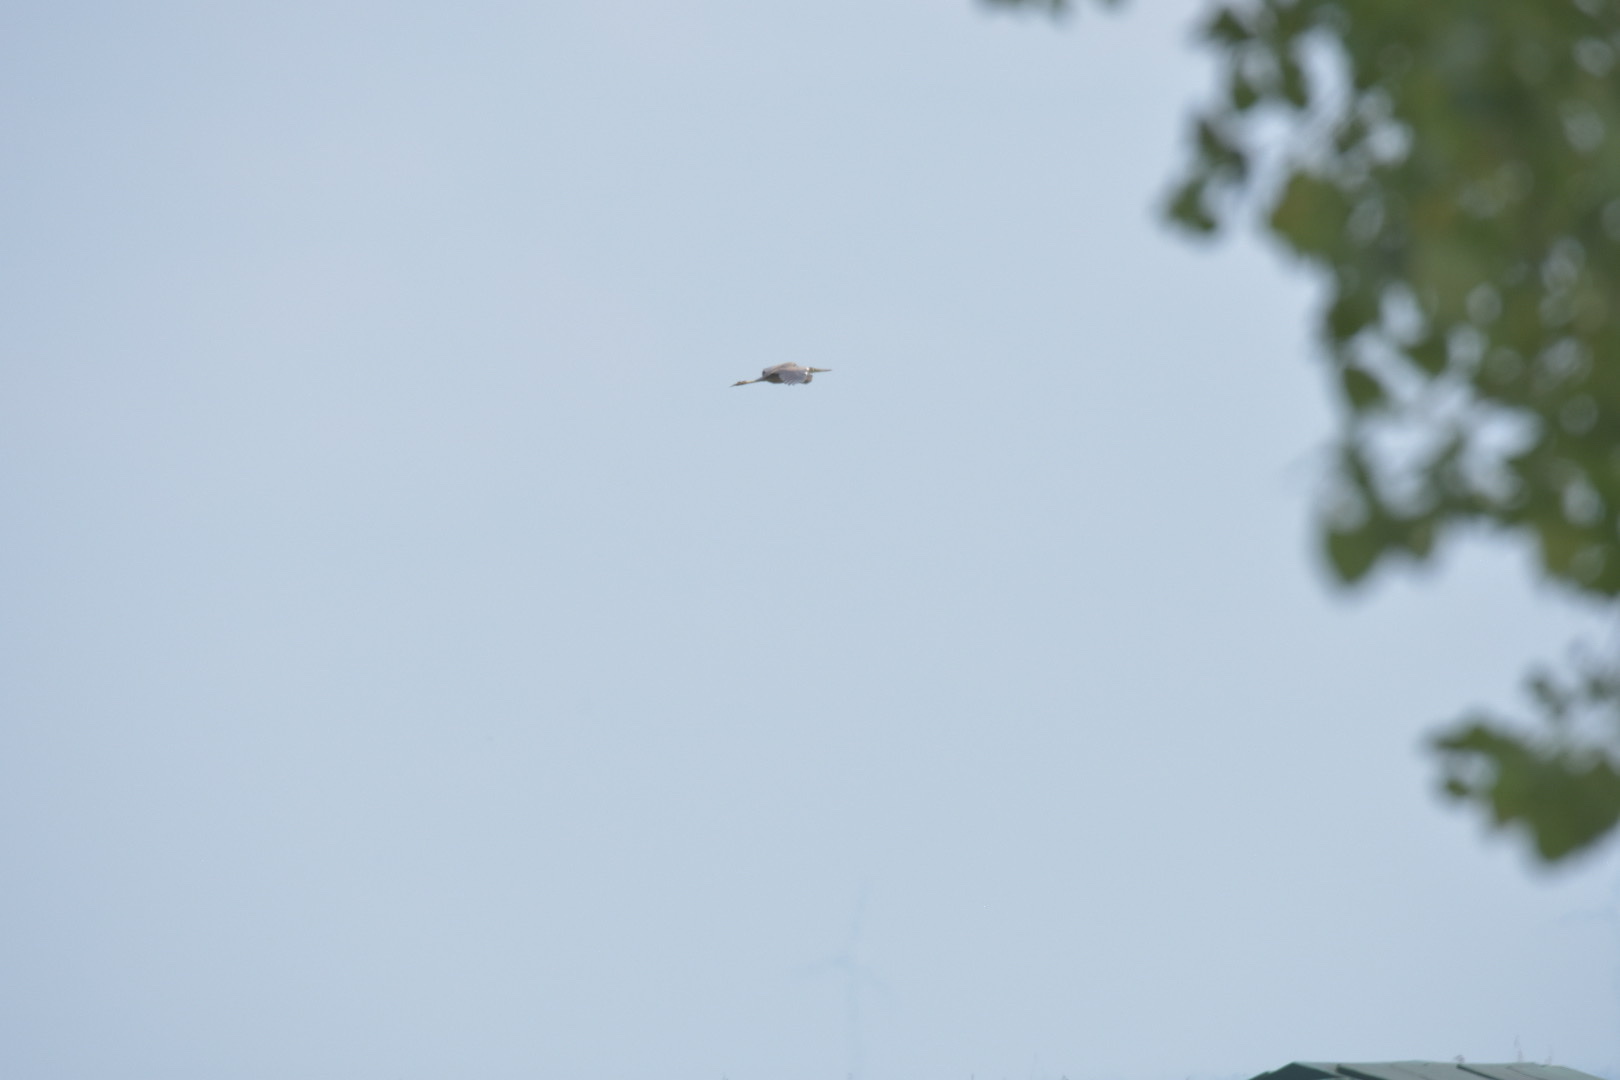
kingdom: Animalia
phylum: Chordata
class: Aves
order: Pelecaniformes
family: Ardeidae
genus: Ardea
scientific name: Ardea purpurea
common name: Purple heron
